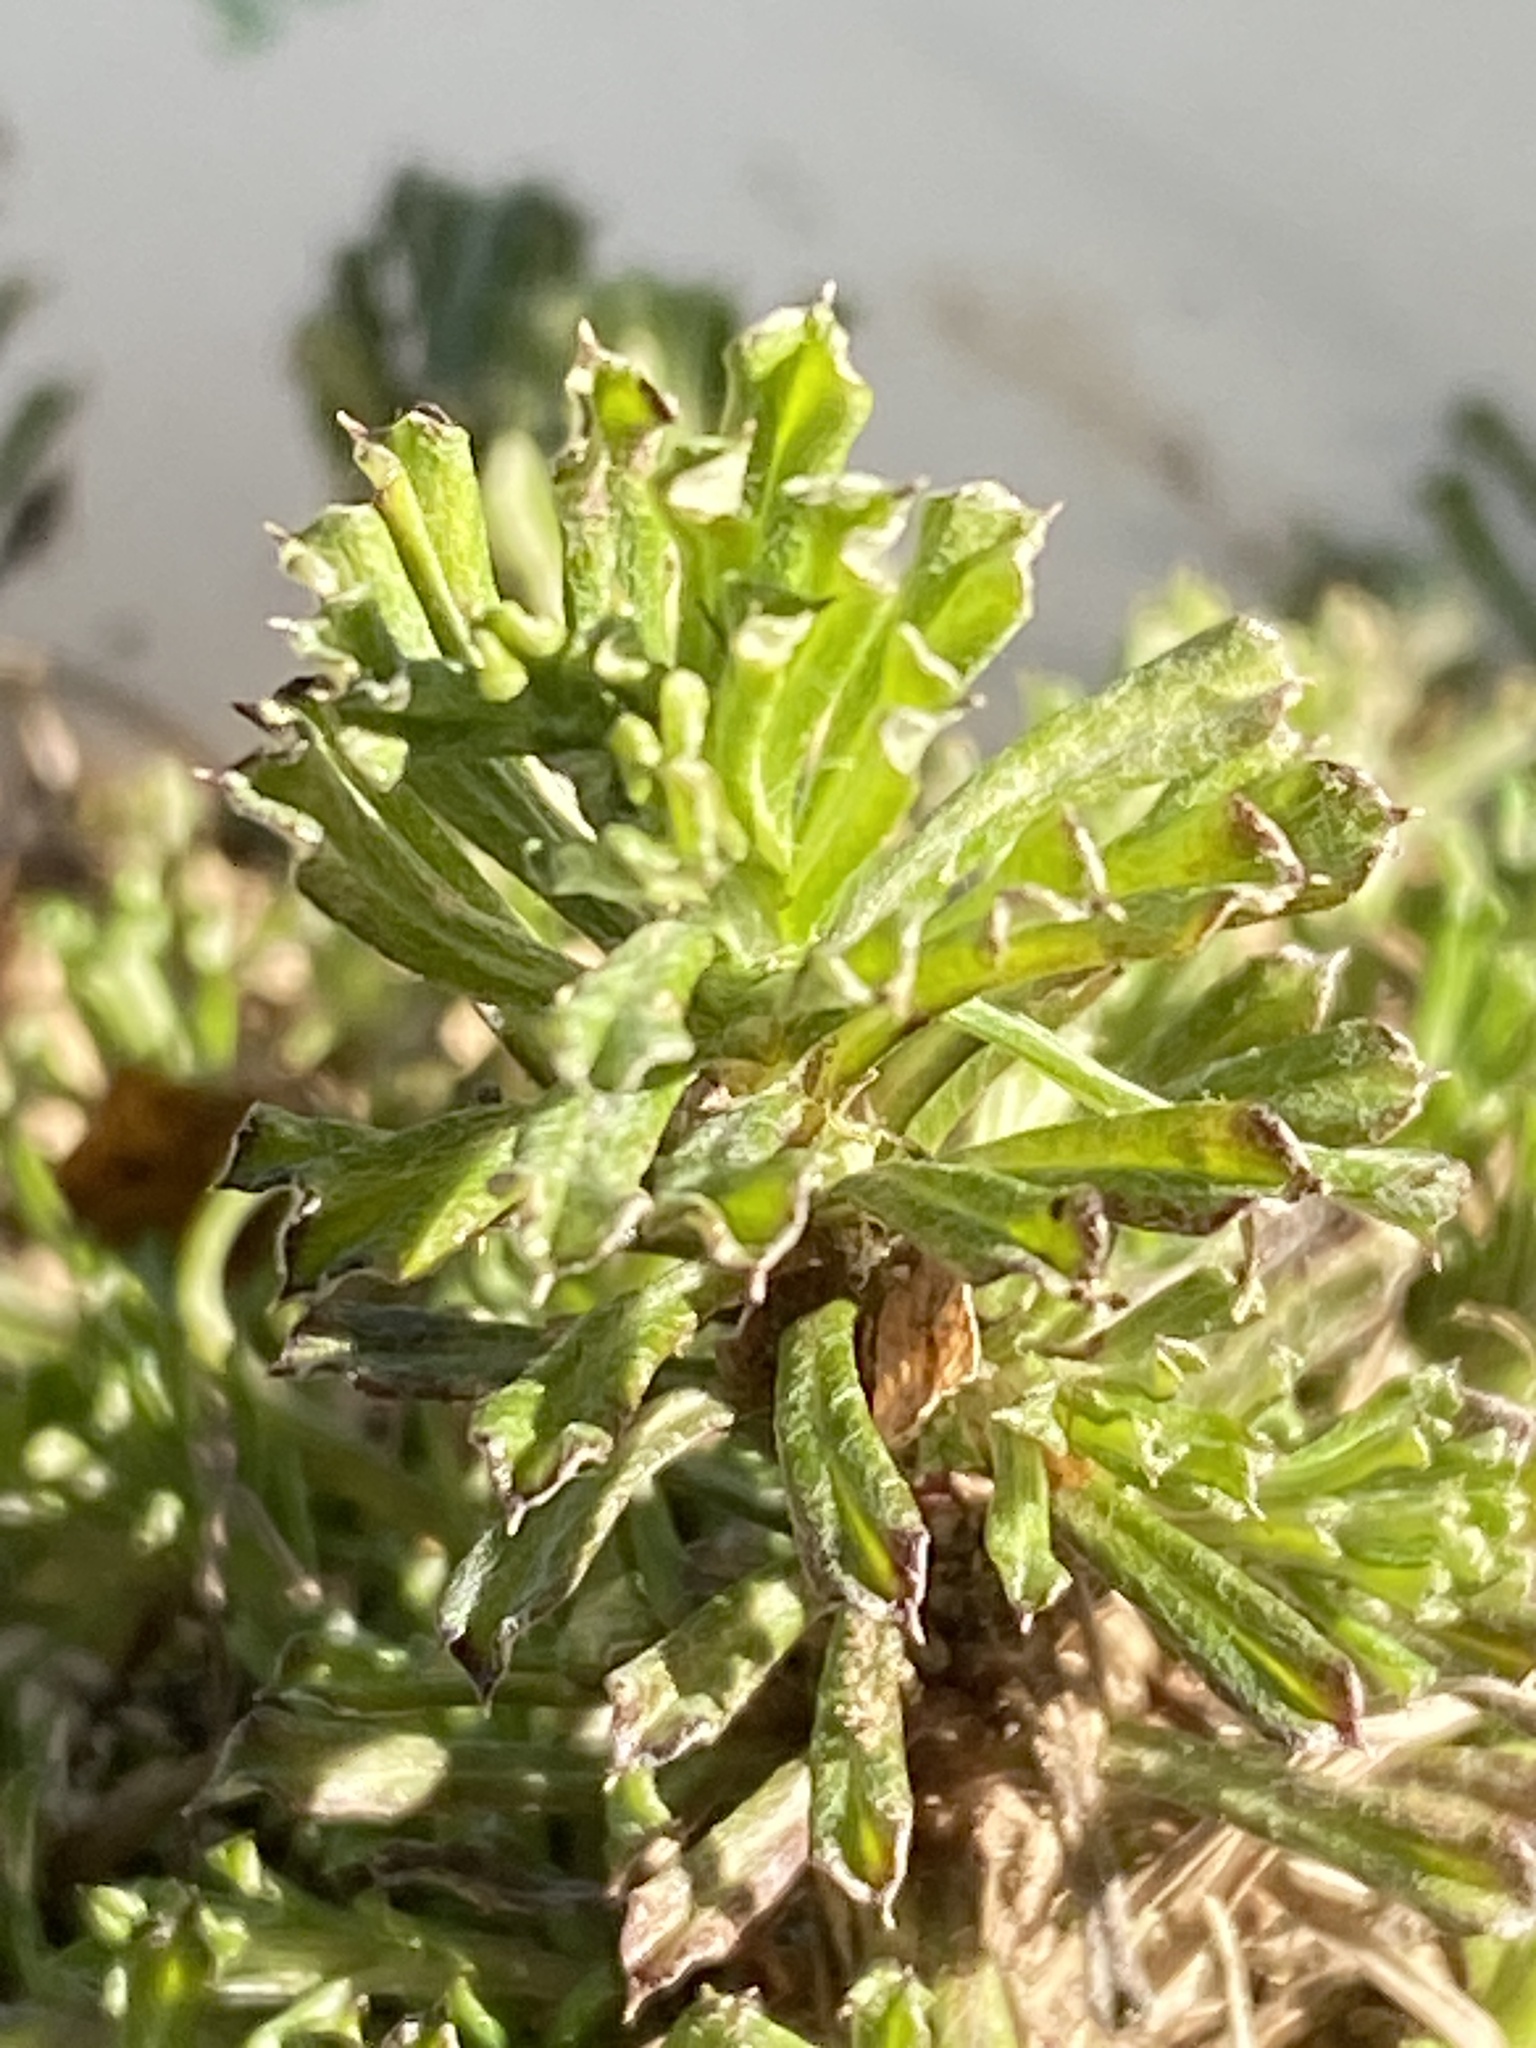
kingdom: Plantae
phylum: Tracheophyta
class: Magnoliopsida
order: Asterales
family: Asteraceae
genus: Facelis
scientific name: Facelis retusa
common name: Annual trampweed
